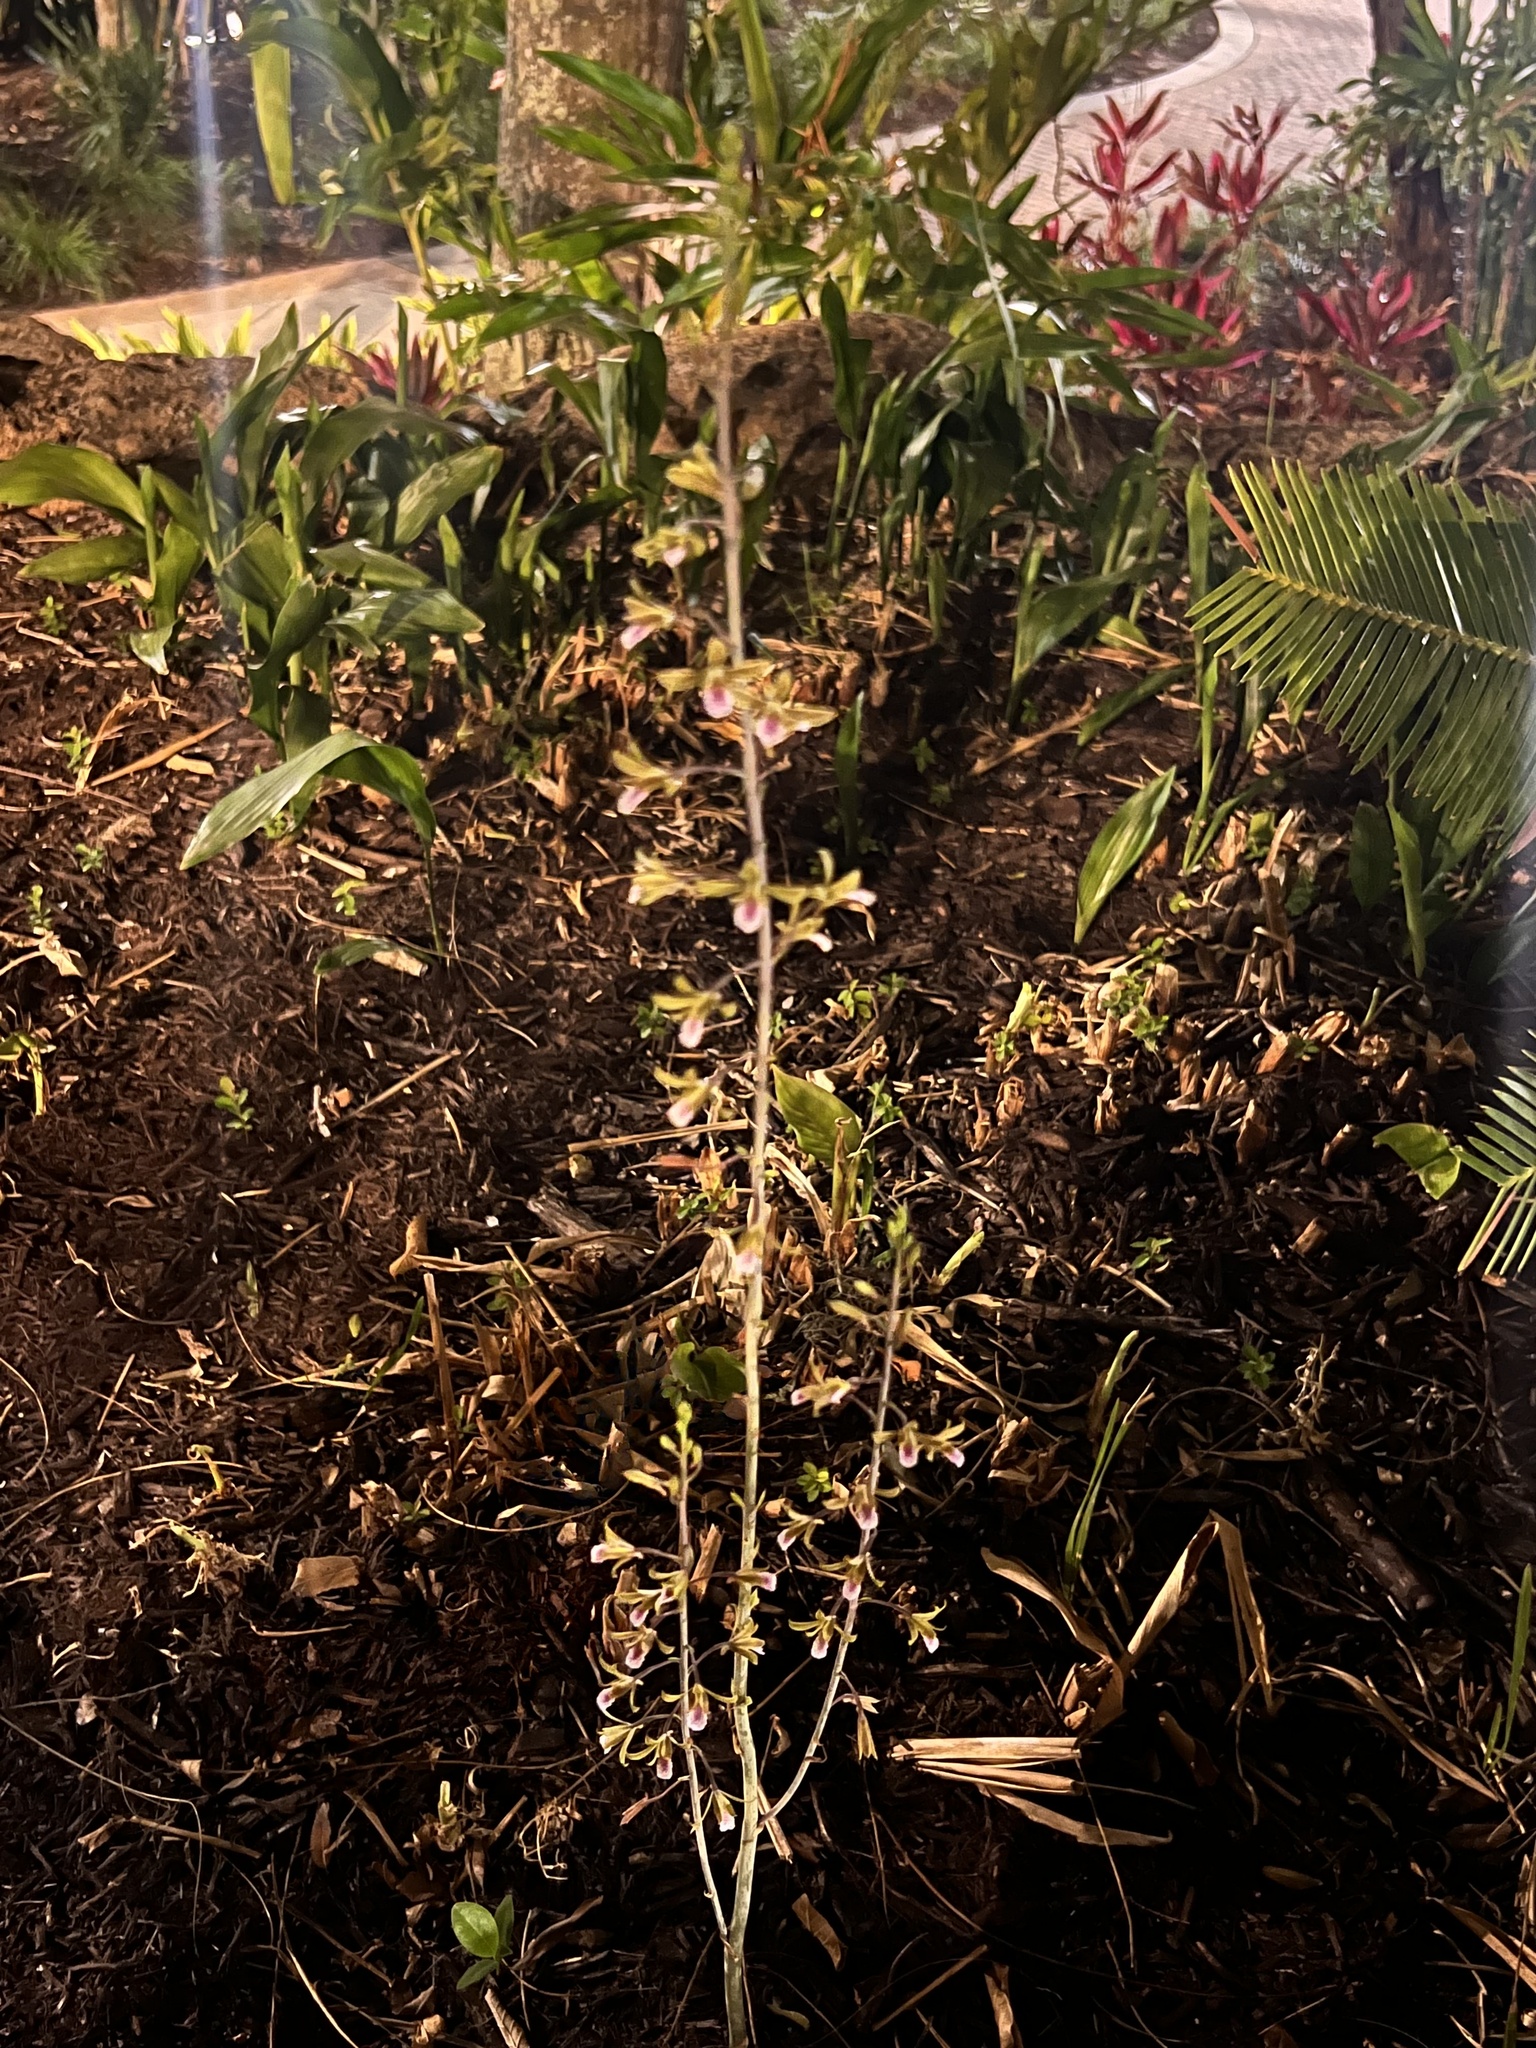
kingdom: Plantae
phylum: Tracheophyta
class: Liliopsida
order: Asparagales
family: Orchidaceae
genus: Eulophia
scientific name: Eulophia graminea
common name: Orchid
